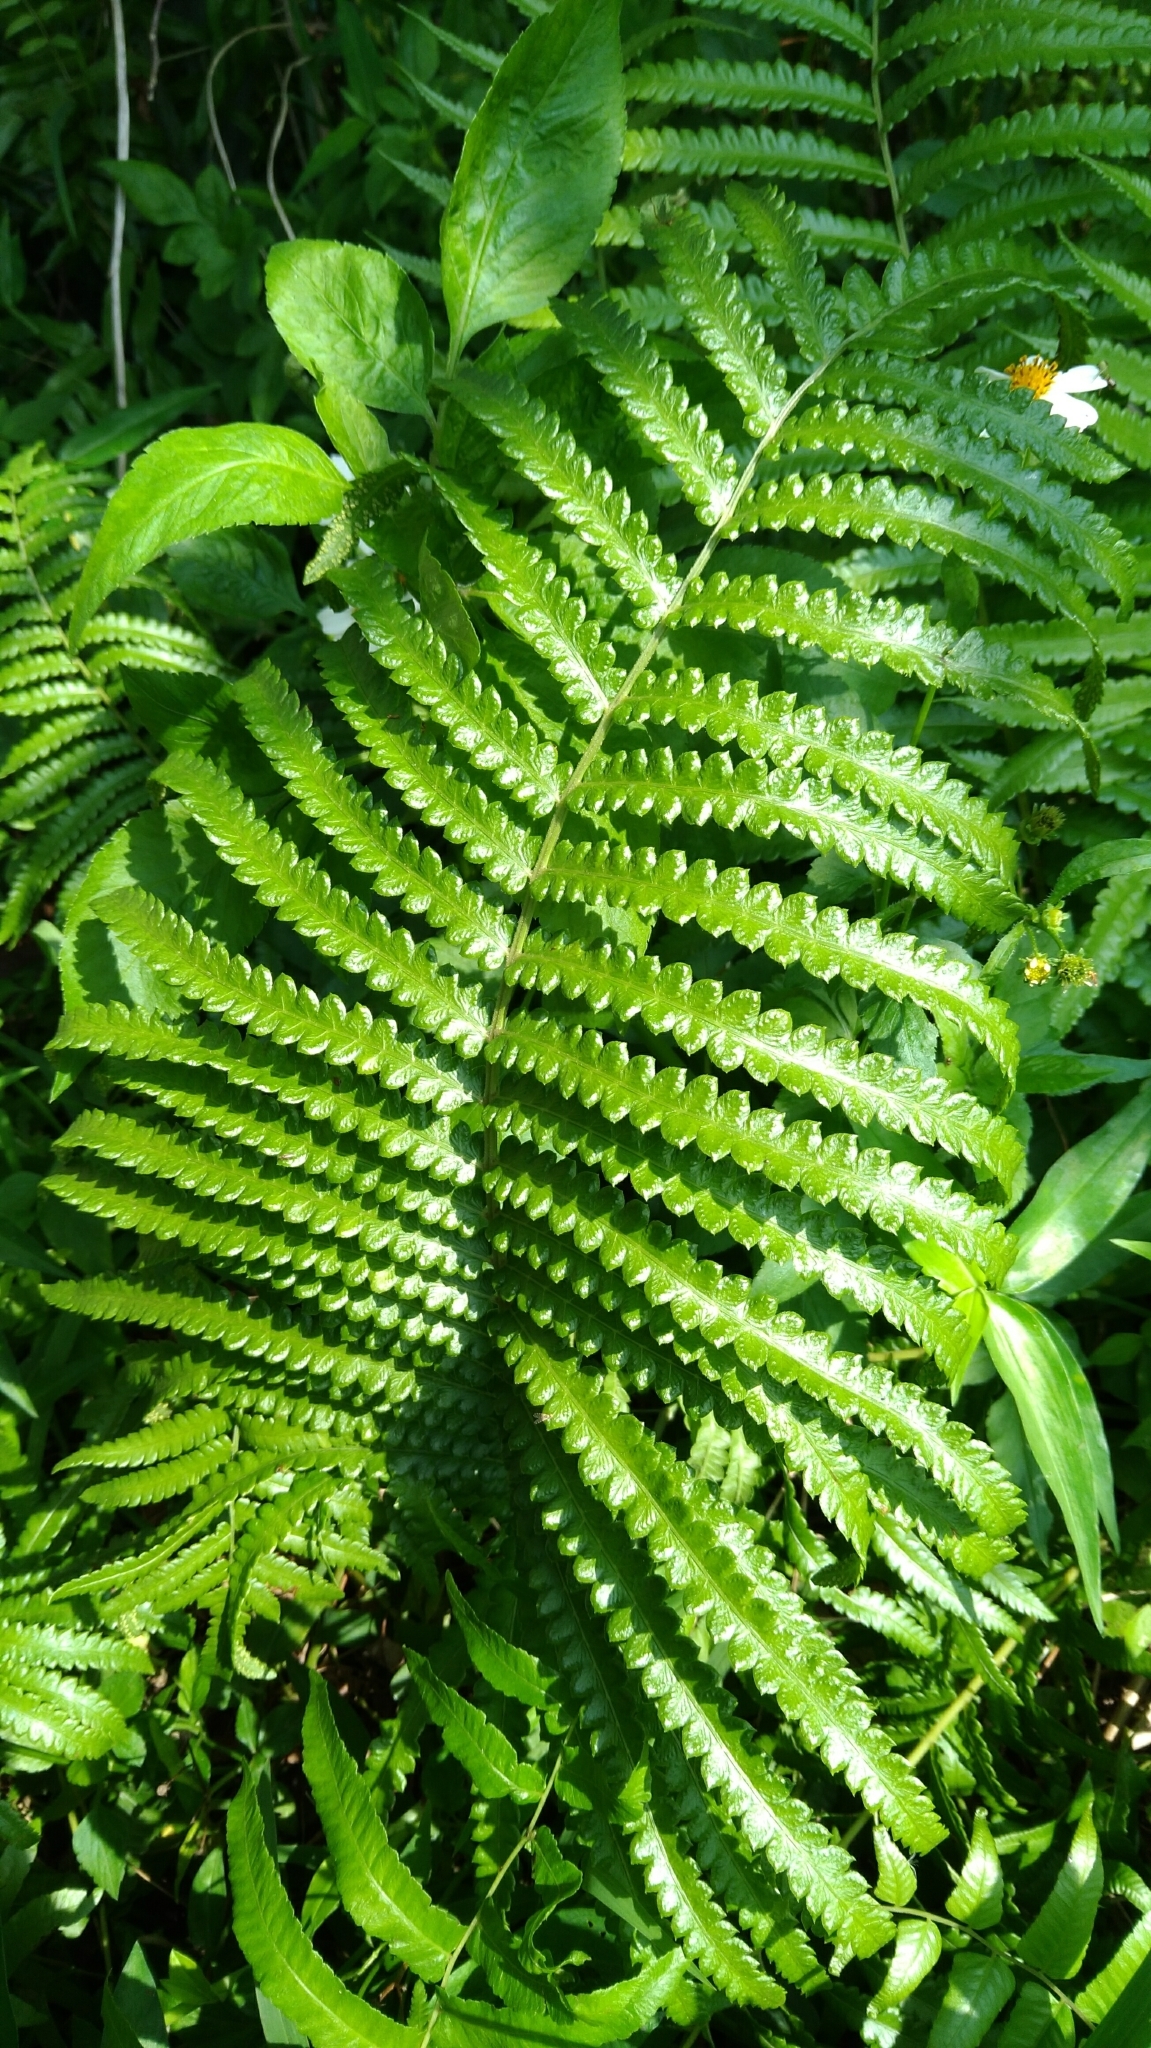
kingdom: Plantae
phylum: Tracheophyta
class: Polypodiopsida
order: Polypodiales
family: Thelypteridaceae
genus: Cyclosorus
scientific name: Cyclosorus interruptus
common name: Neke fern
